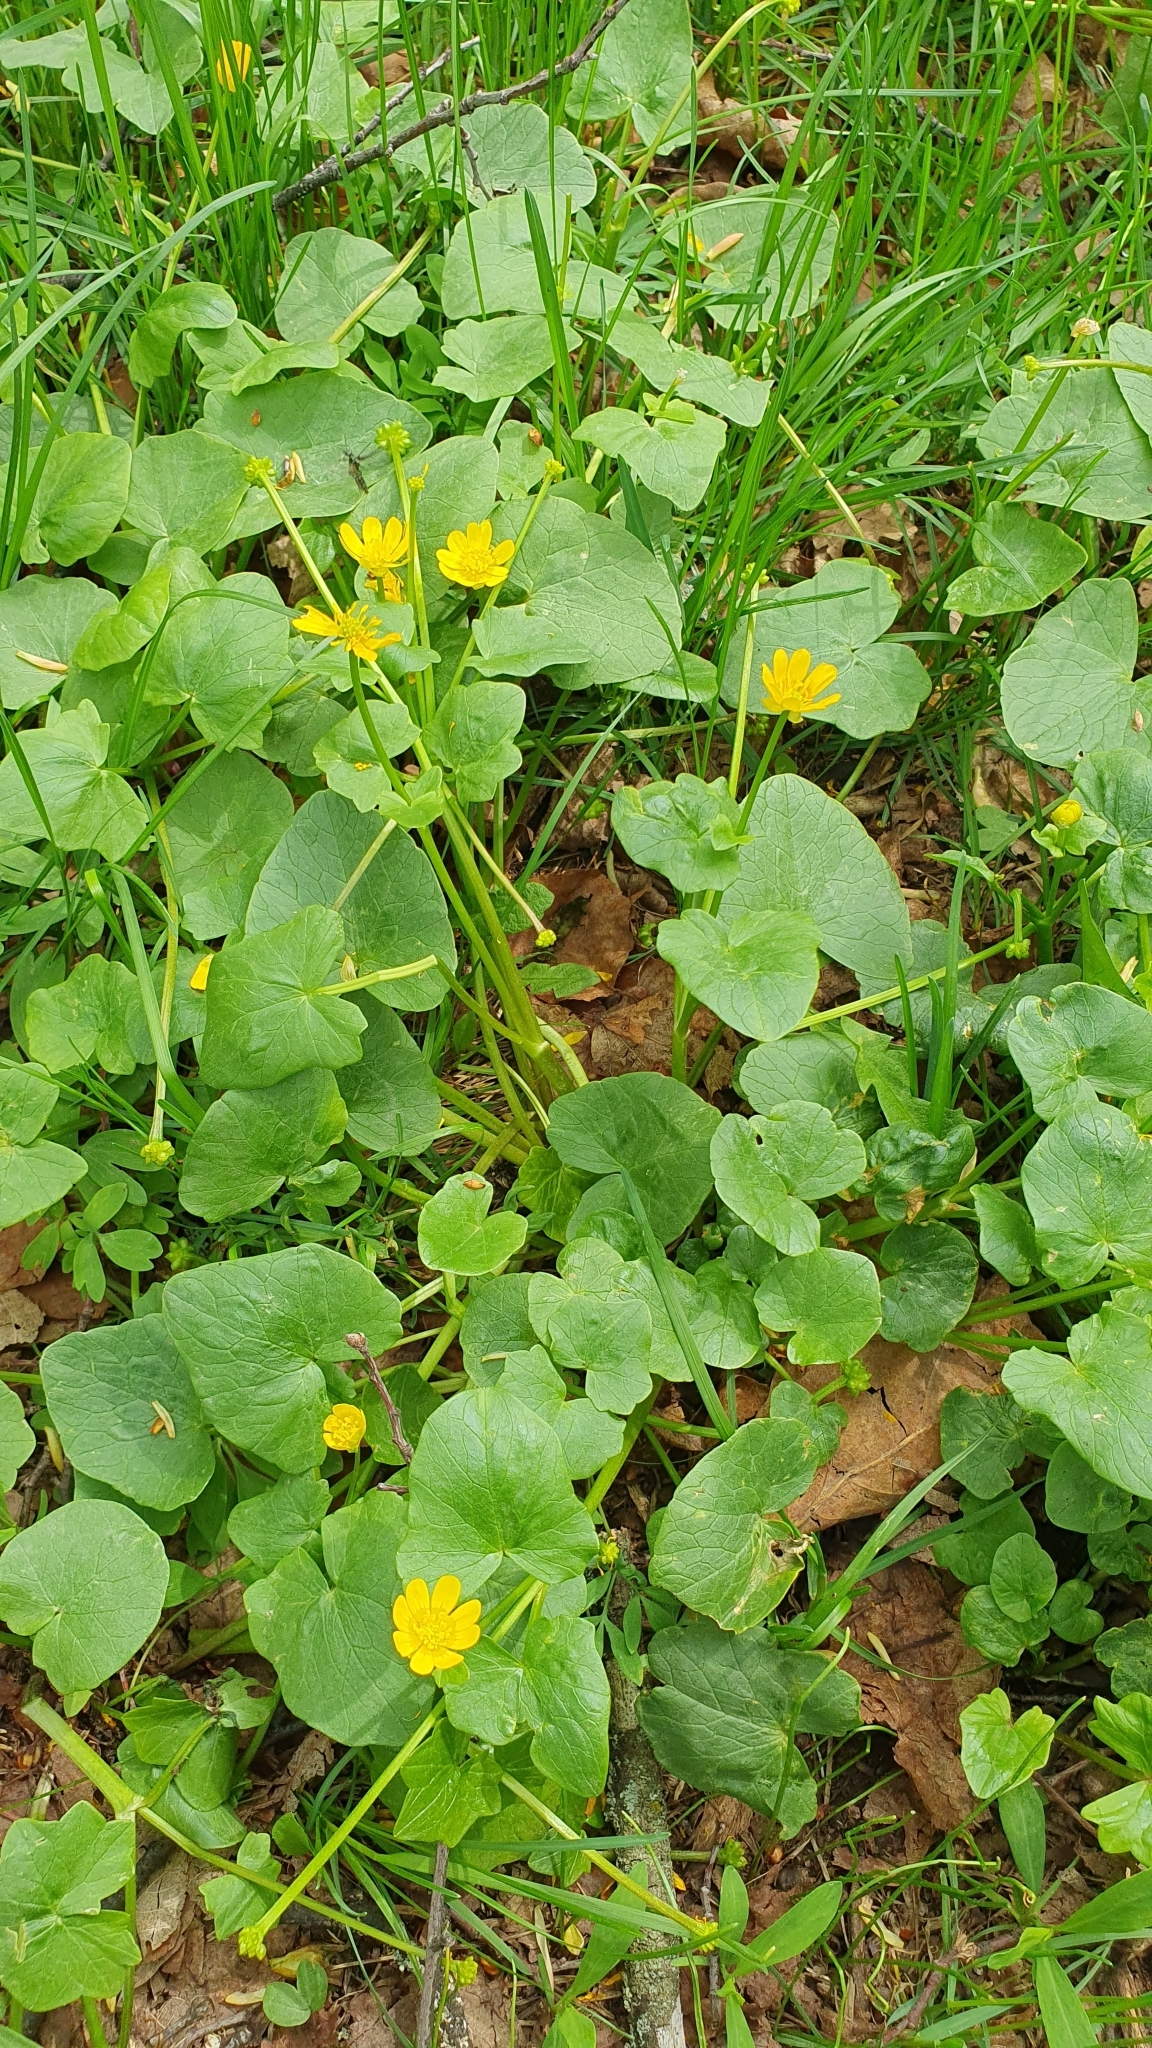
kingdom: Plantae
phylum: Tracheophyta
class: Magnoliopsida
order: Ranunculales
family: Ranunculaceae
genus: Ficaria
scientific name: Ficaria verna
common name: Lesser celandine
